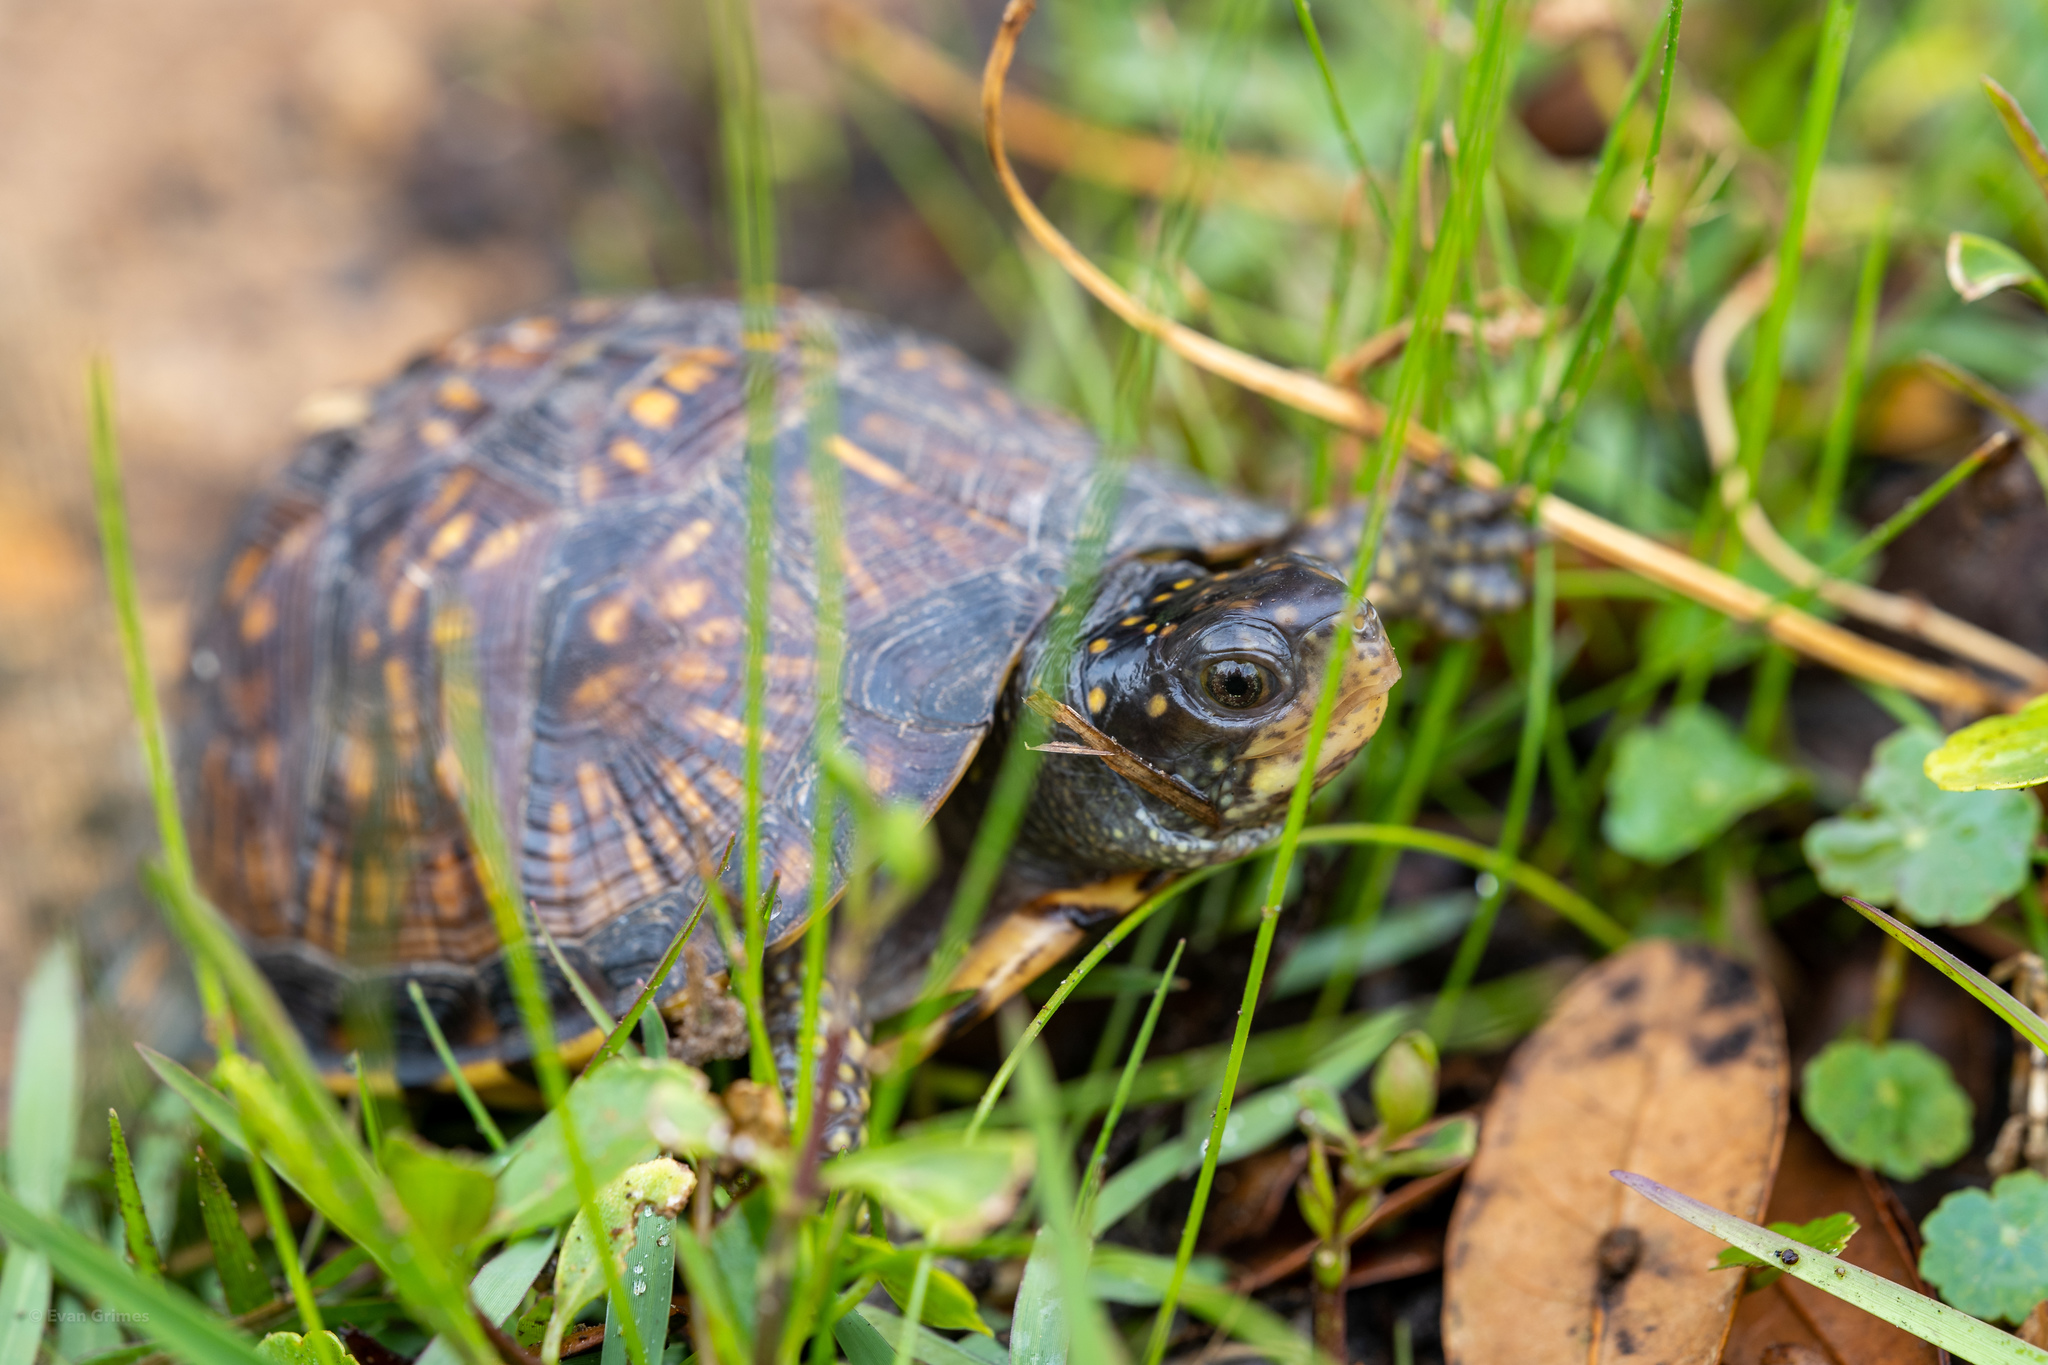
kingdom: Animalia
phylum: Chordata
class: Testudines
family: Emydidae
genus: Terrapene
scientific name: Terrapene carolina
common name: Common box turtle
